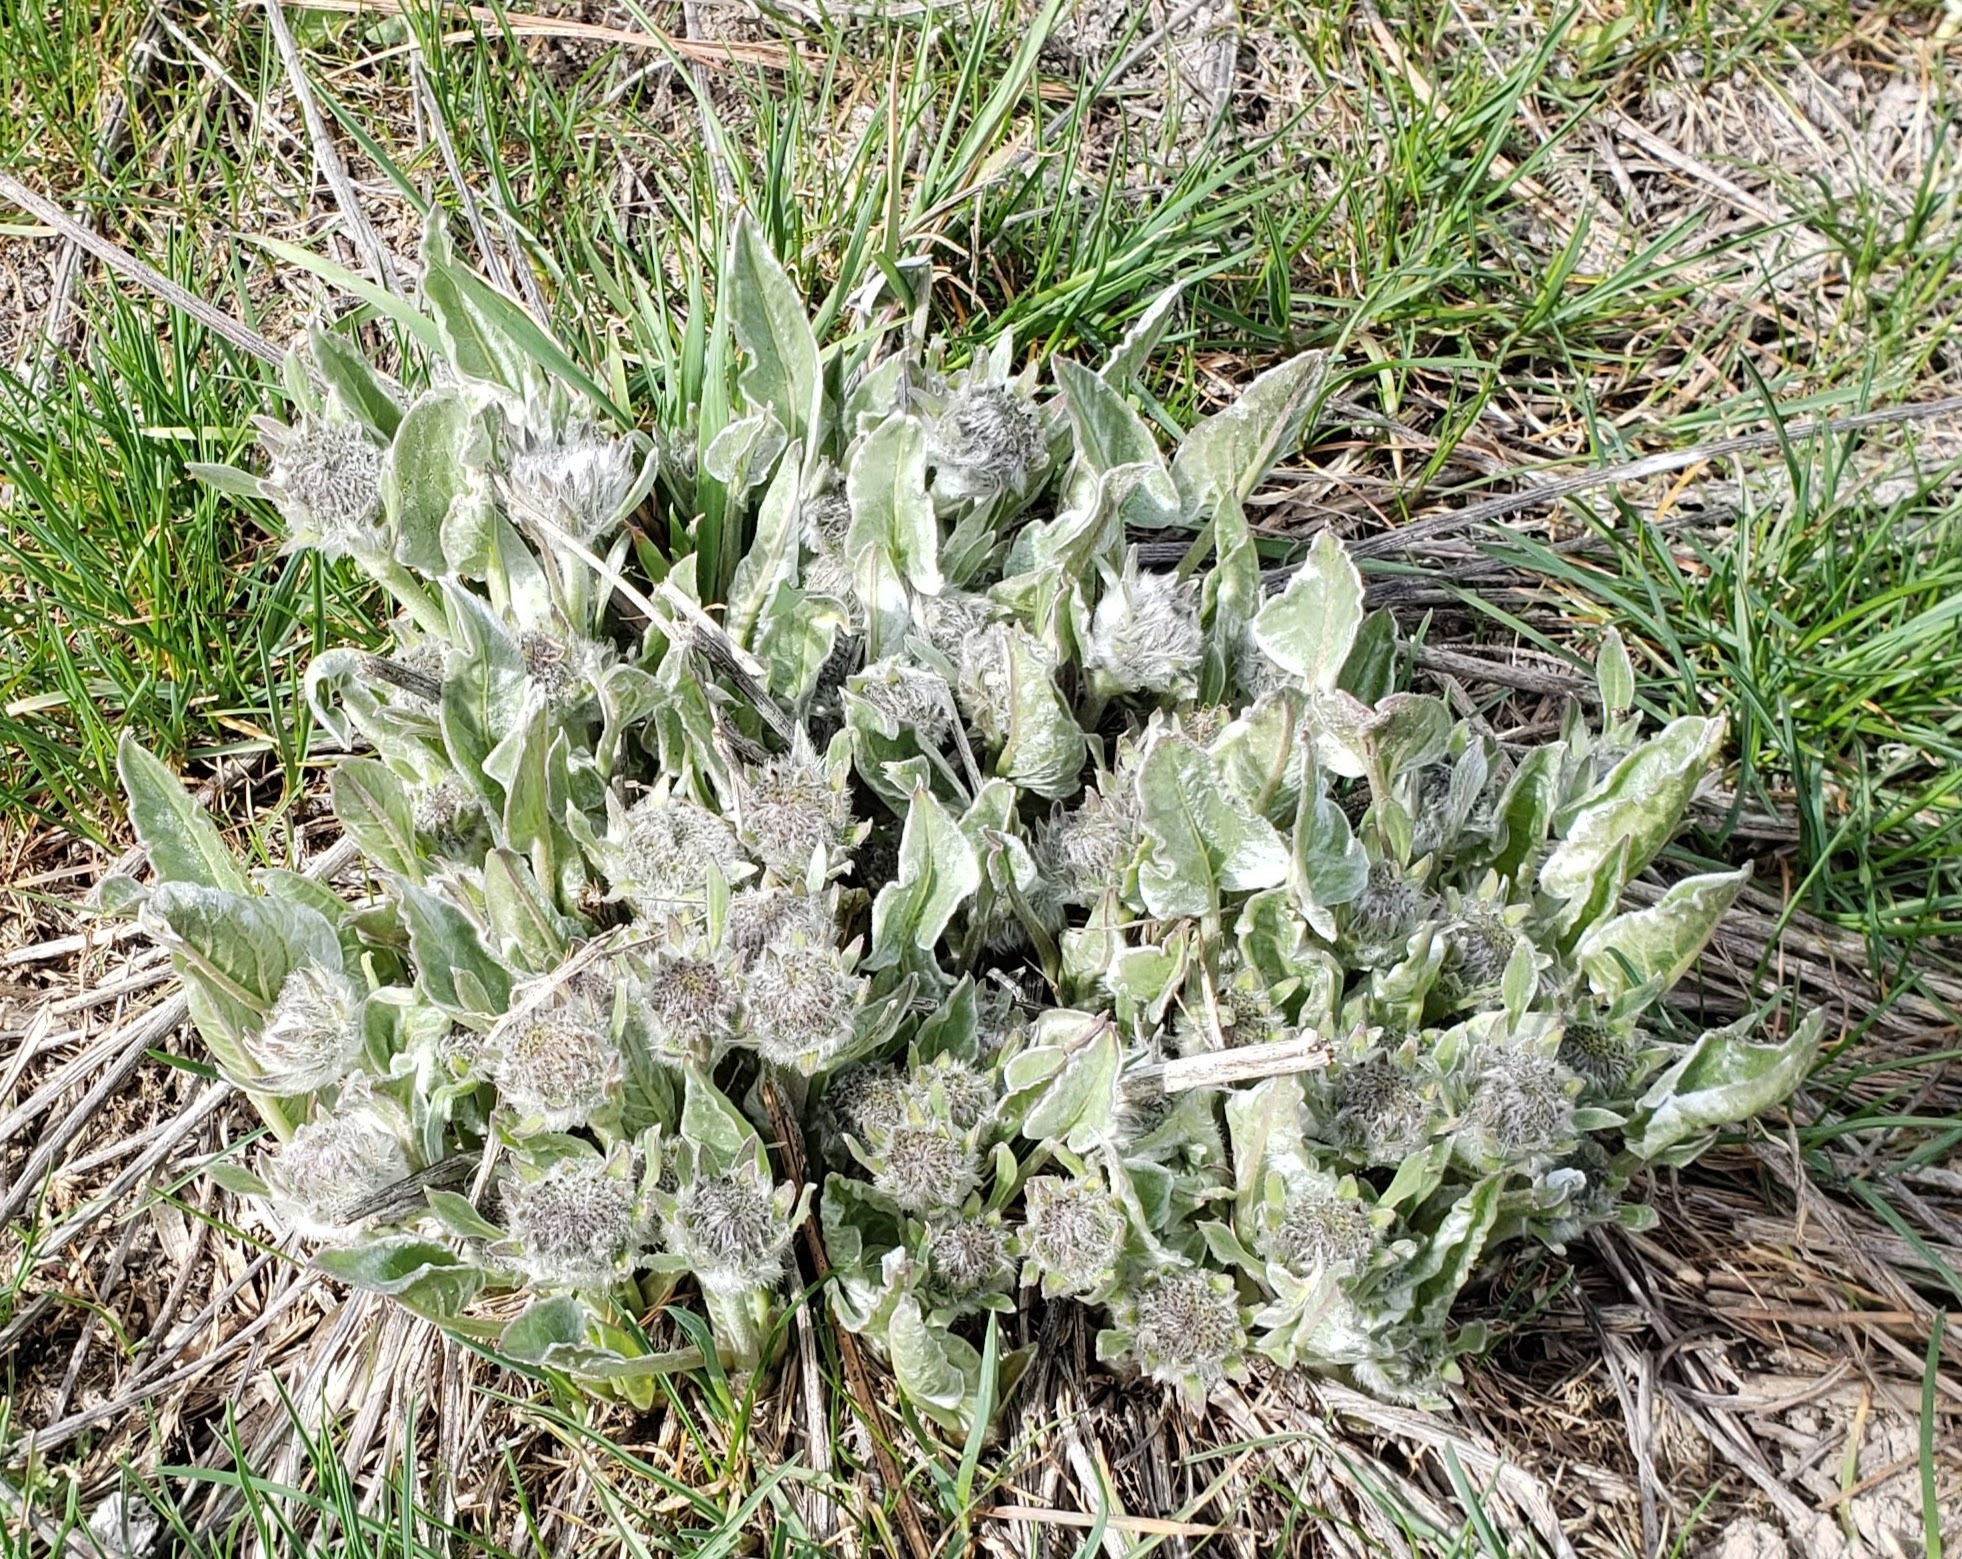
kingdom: Plantae
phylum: Tracheophyta
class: Magnoliopsida
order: Asterales
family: Asteraceae
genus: Wyethia
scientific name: Wyethia sagittata
